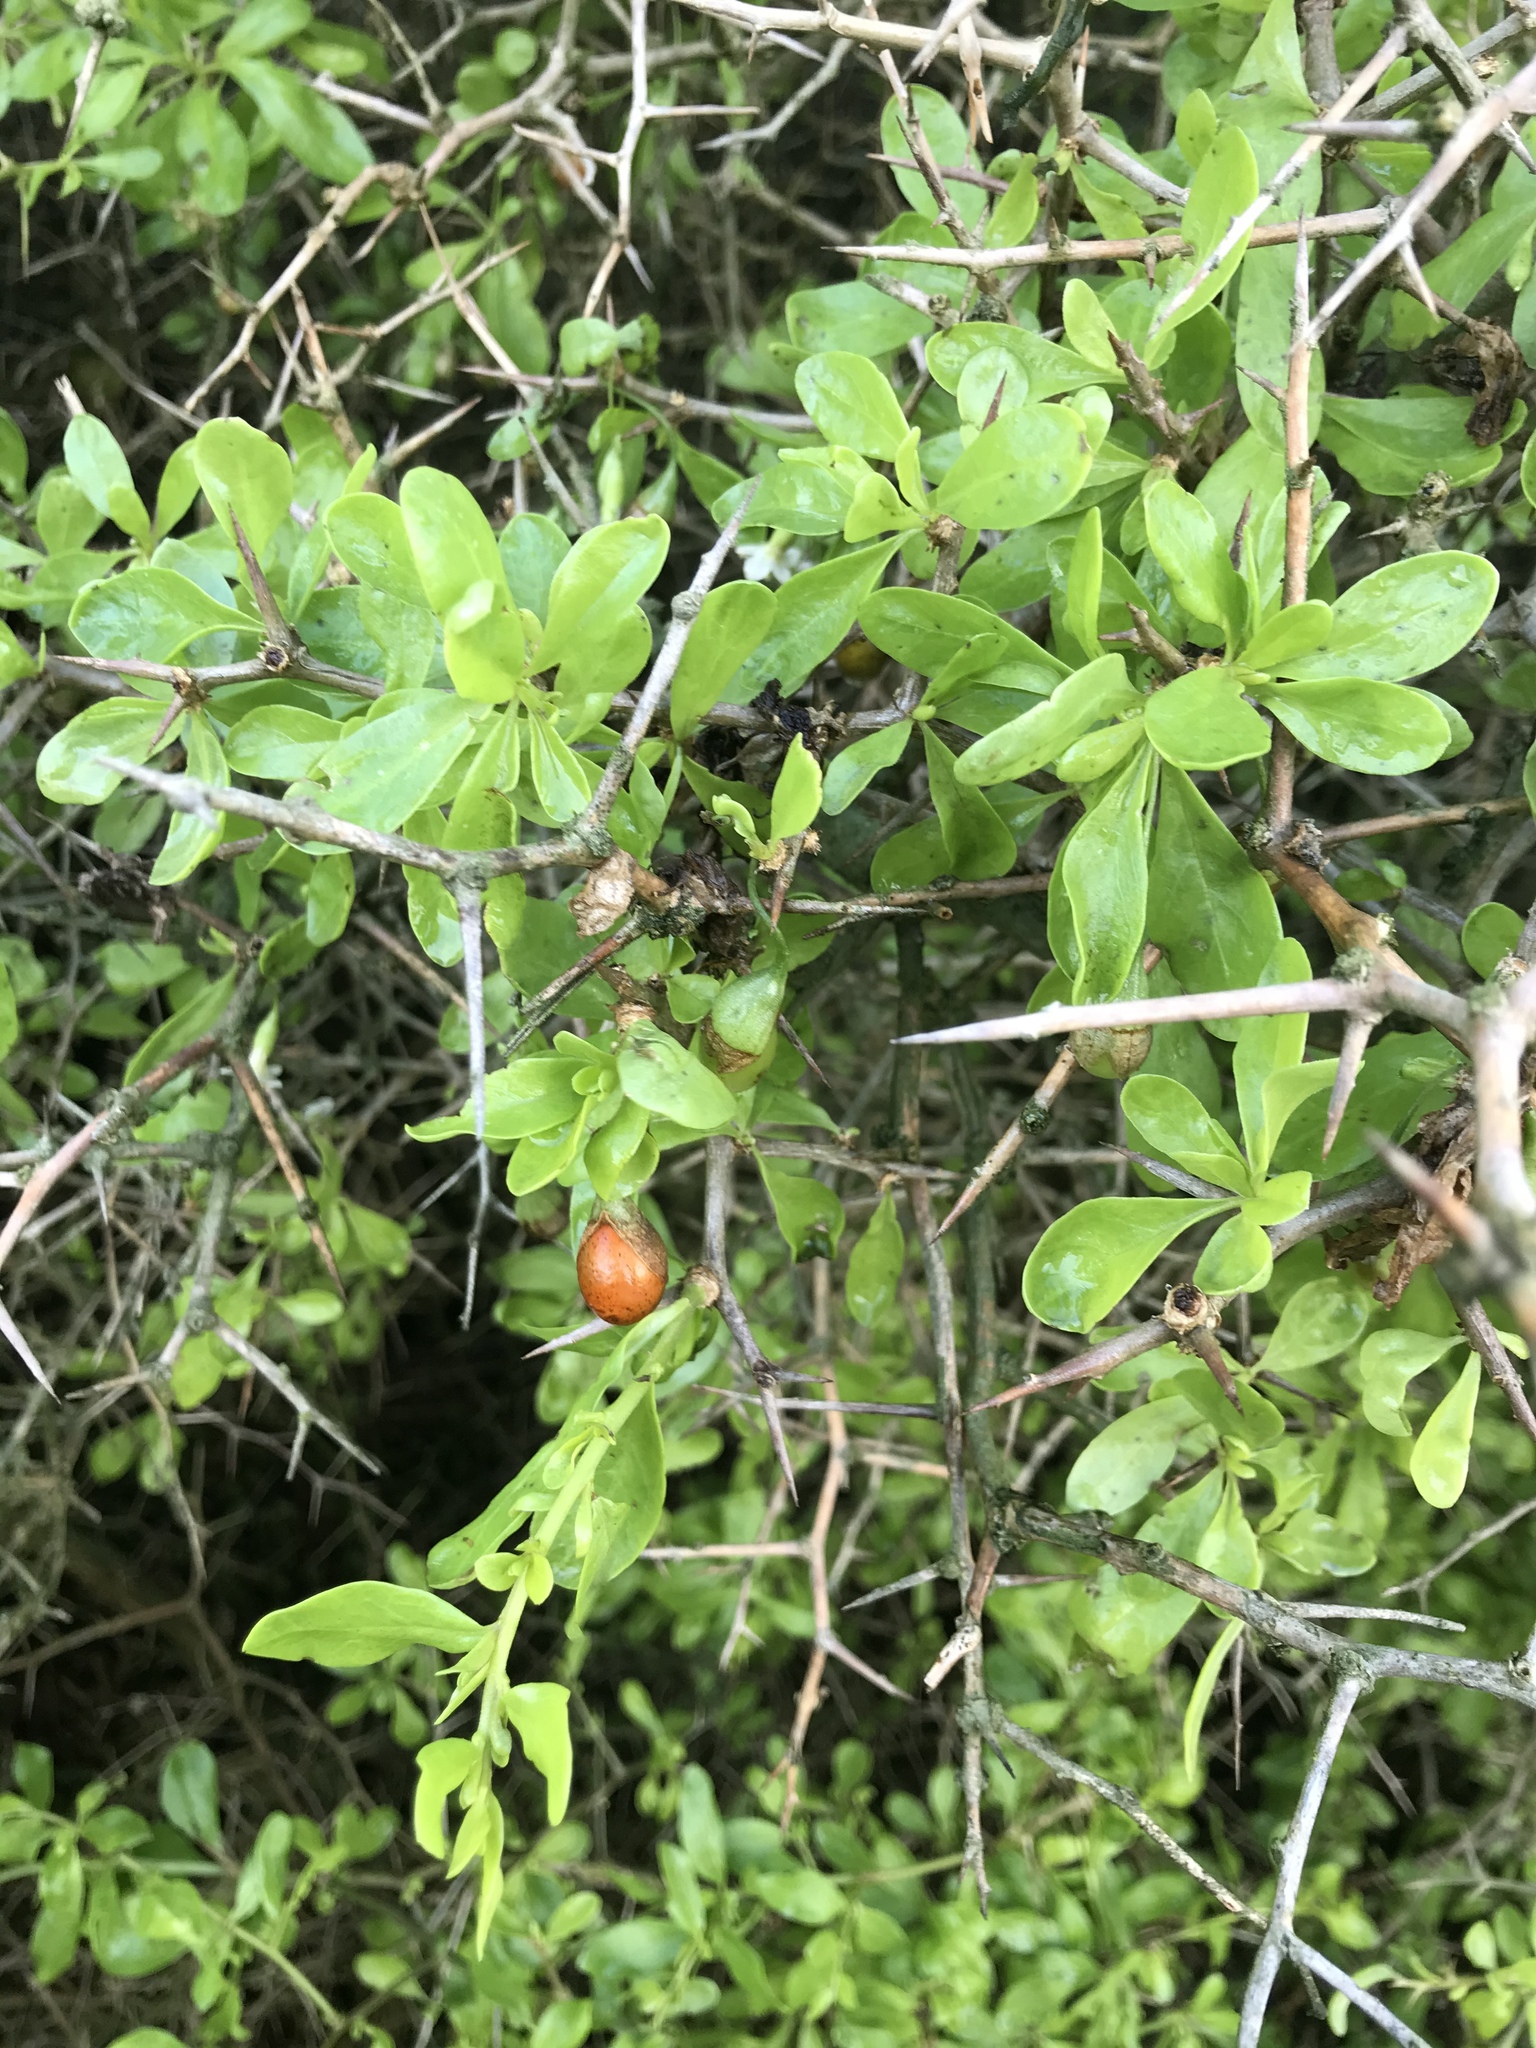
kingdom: Plantae
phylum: Tracheophyta
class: Magnoliopsida
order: Solanales
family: Solanaceae
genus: Lycium
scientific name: Lycium ferocissimum
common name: African boxthorn
